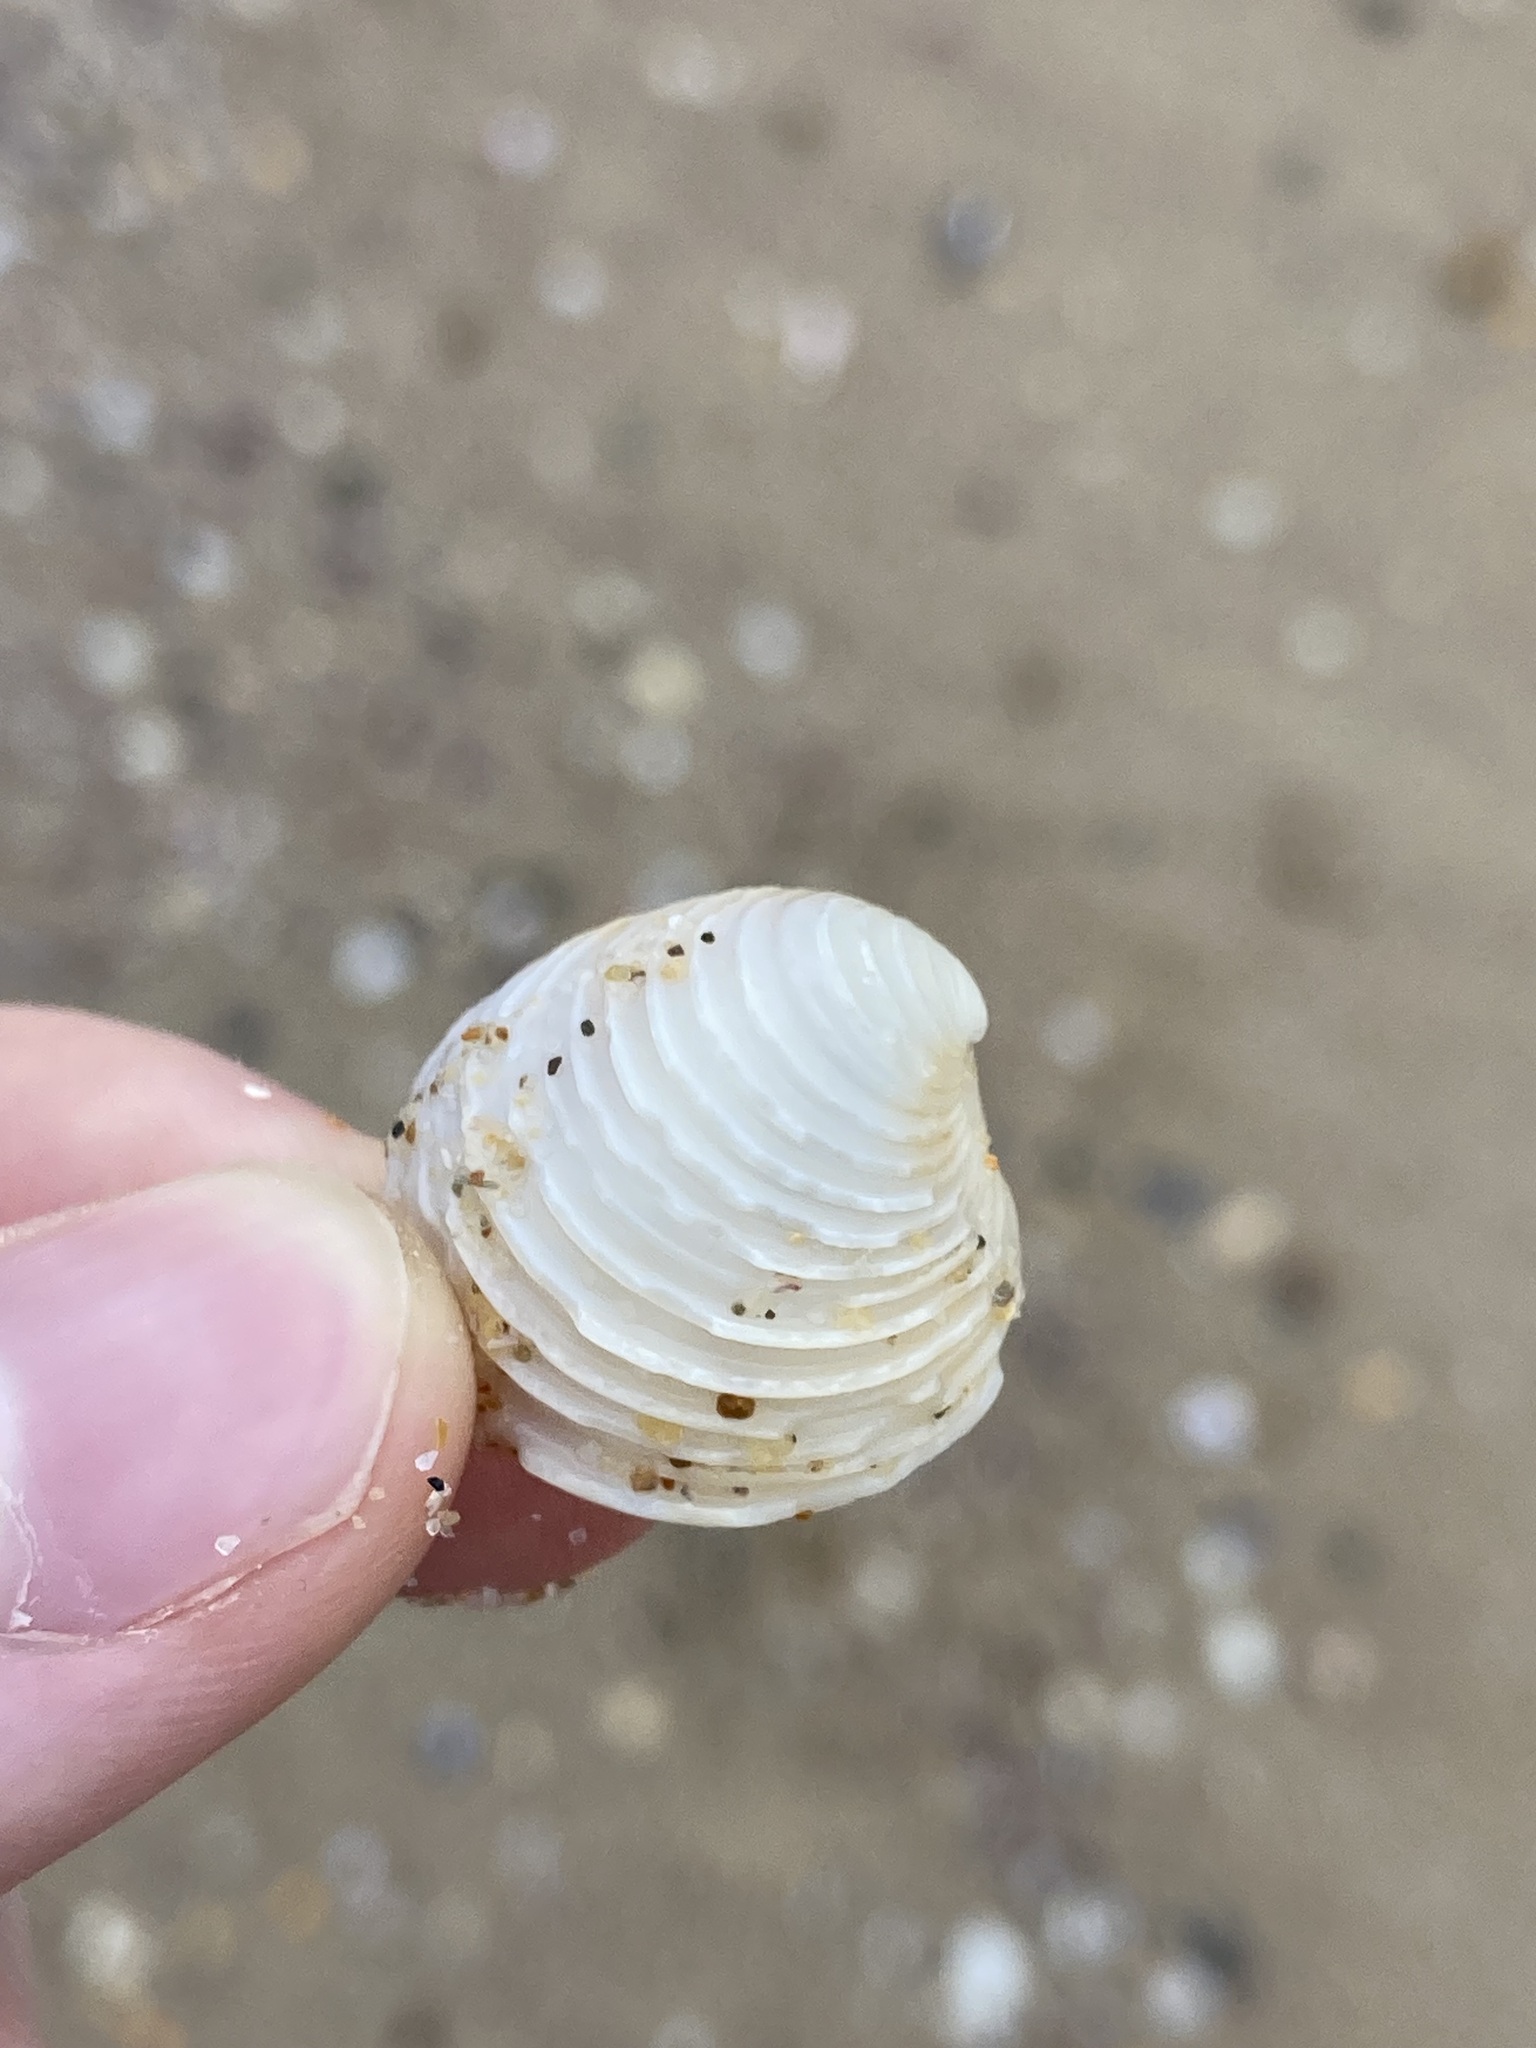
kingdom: Animalia
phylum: Mollusca
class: Bivalvia
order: Venerida
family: Veneridae
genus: Placamen
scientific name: Placamen placidum
